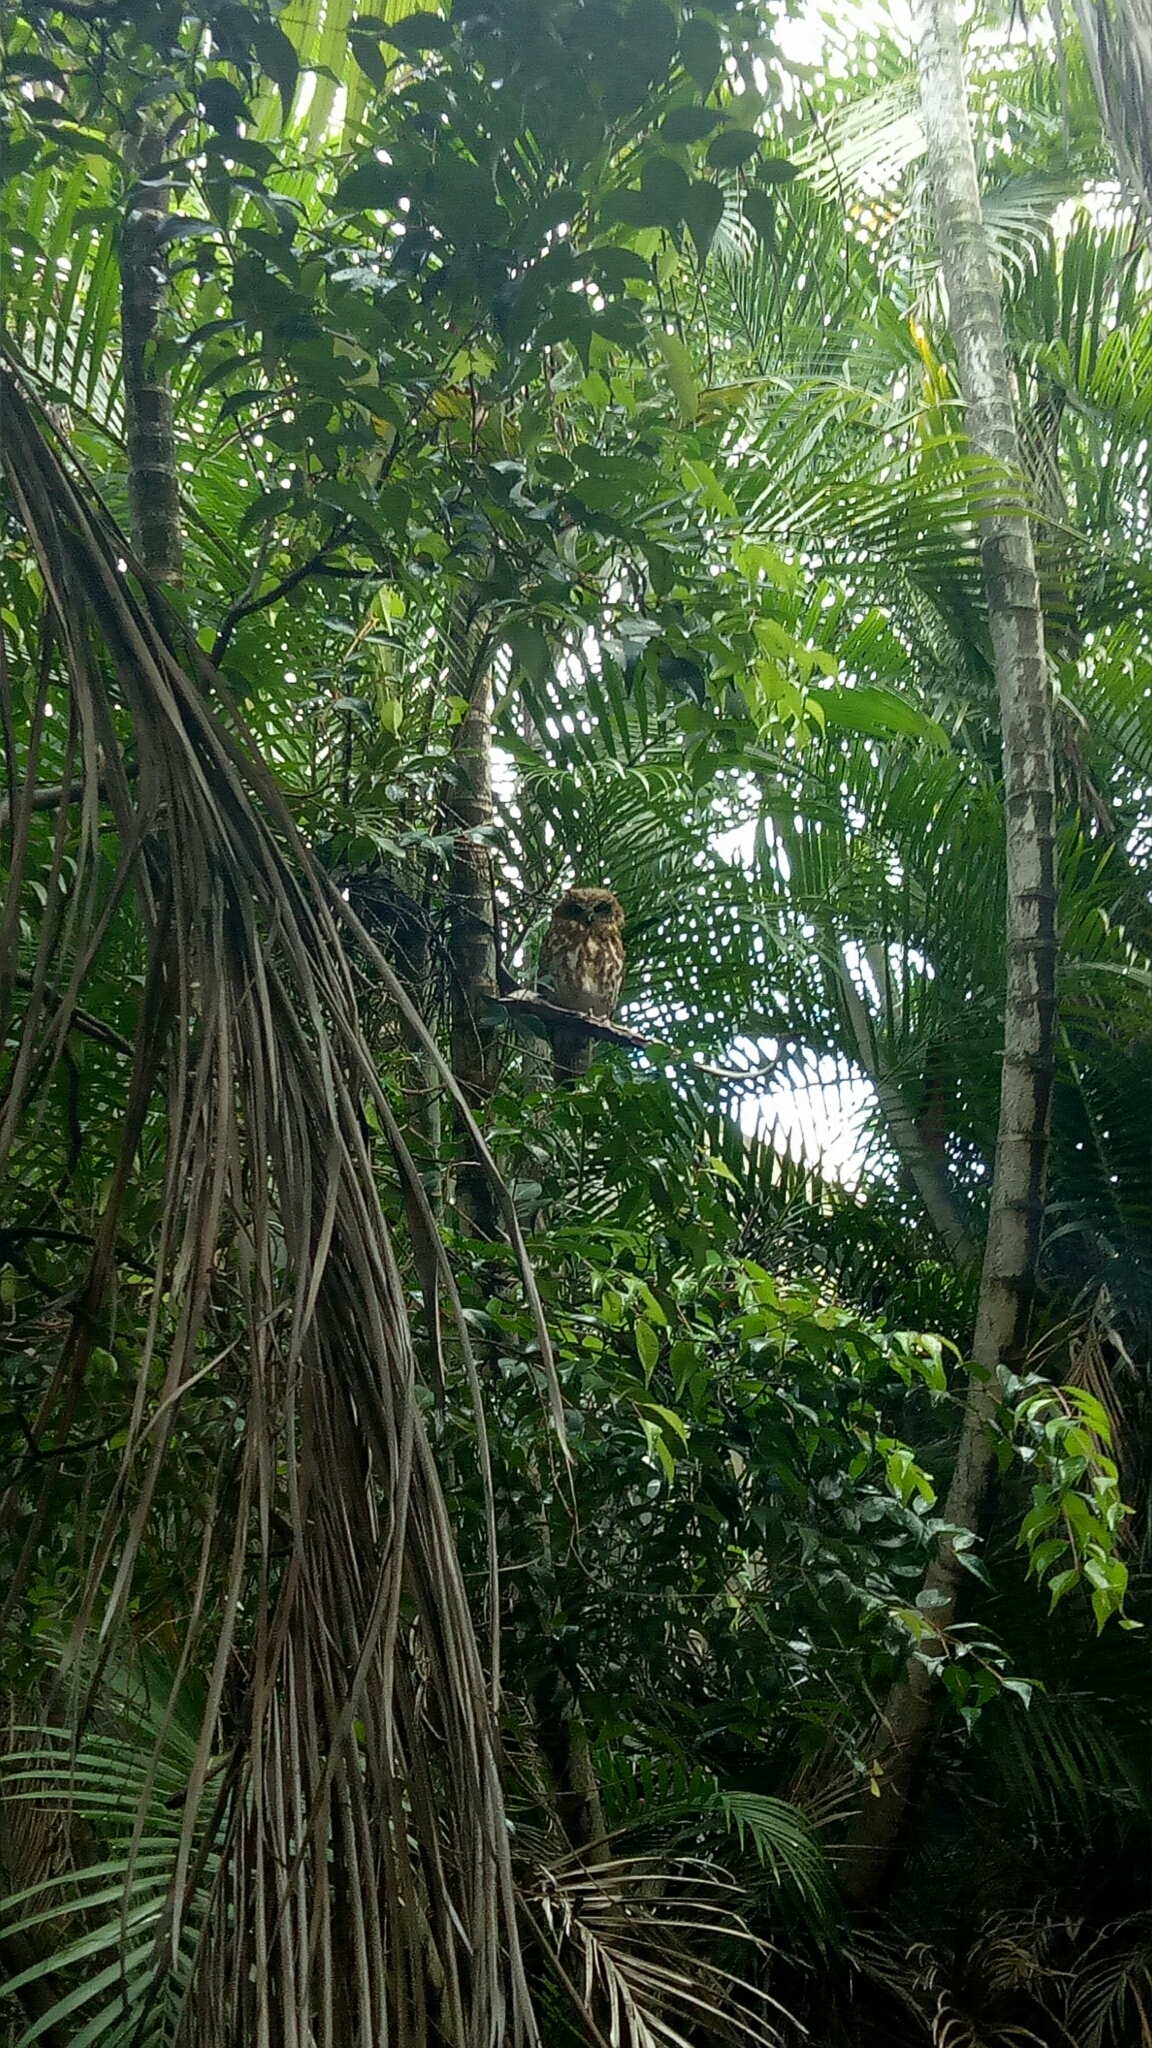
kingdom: Animalia
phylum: Chordata
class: Aves
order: Strigiformes
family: Strigidae
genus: Ninox
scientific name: Ninox boobook
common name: Southern boobook
